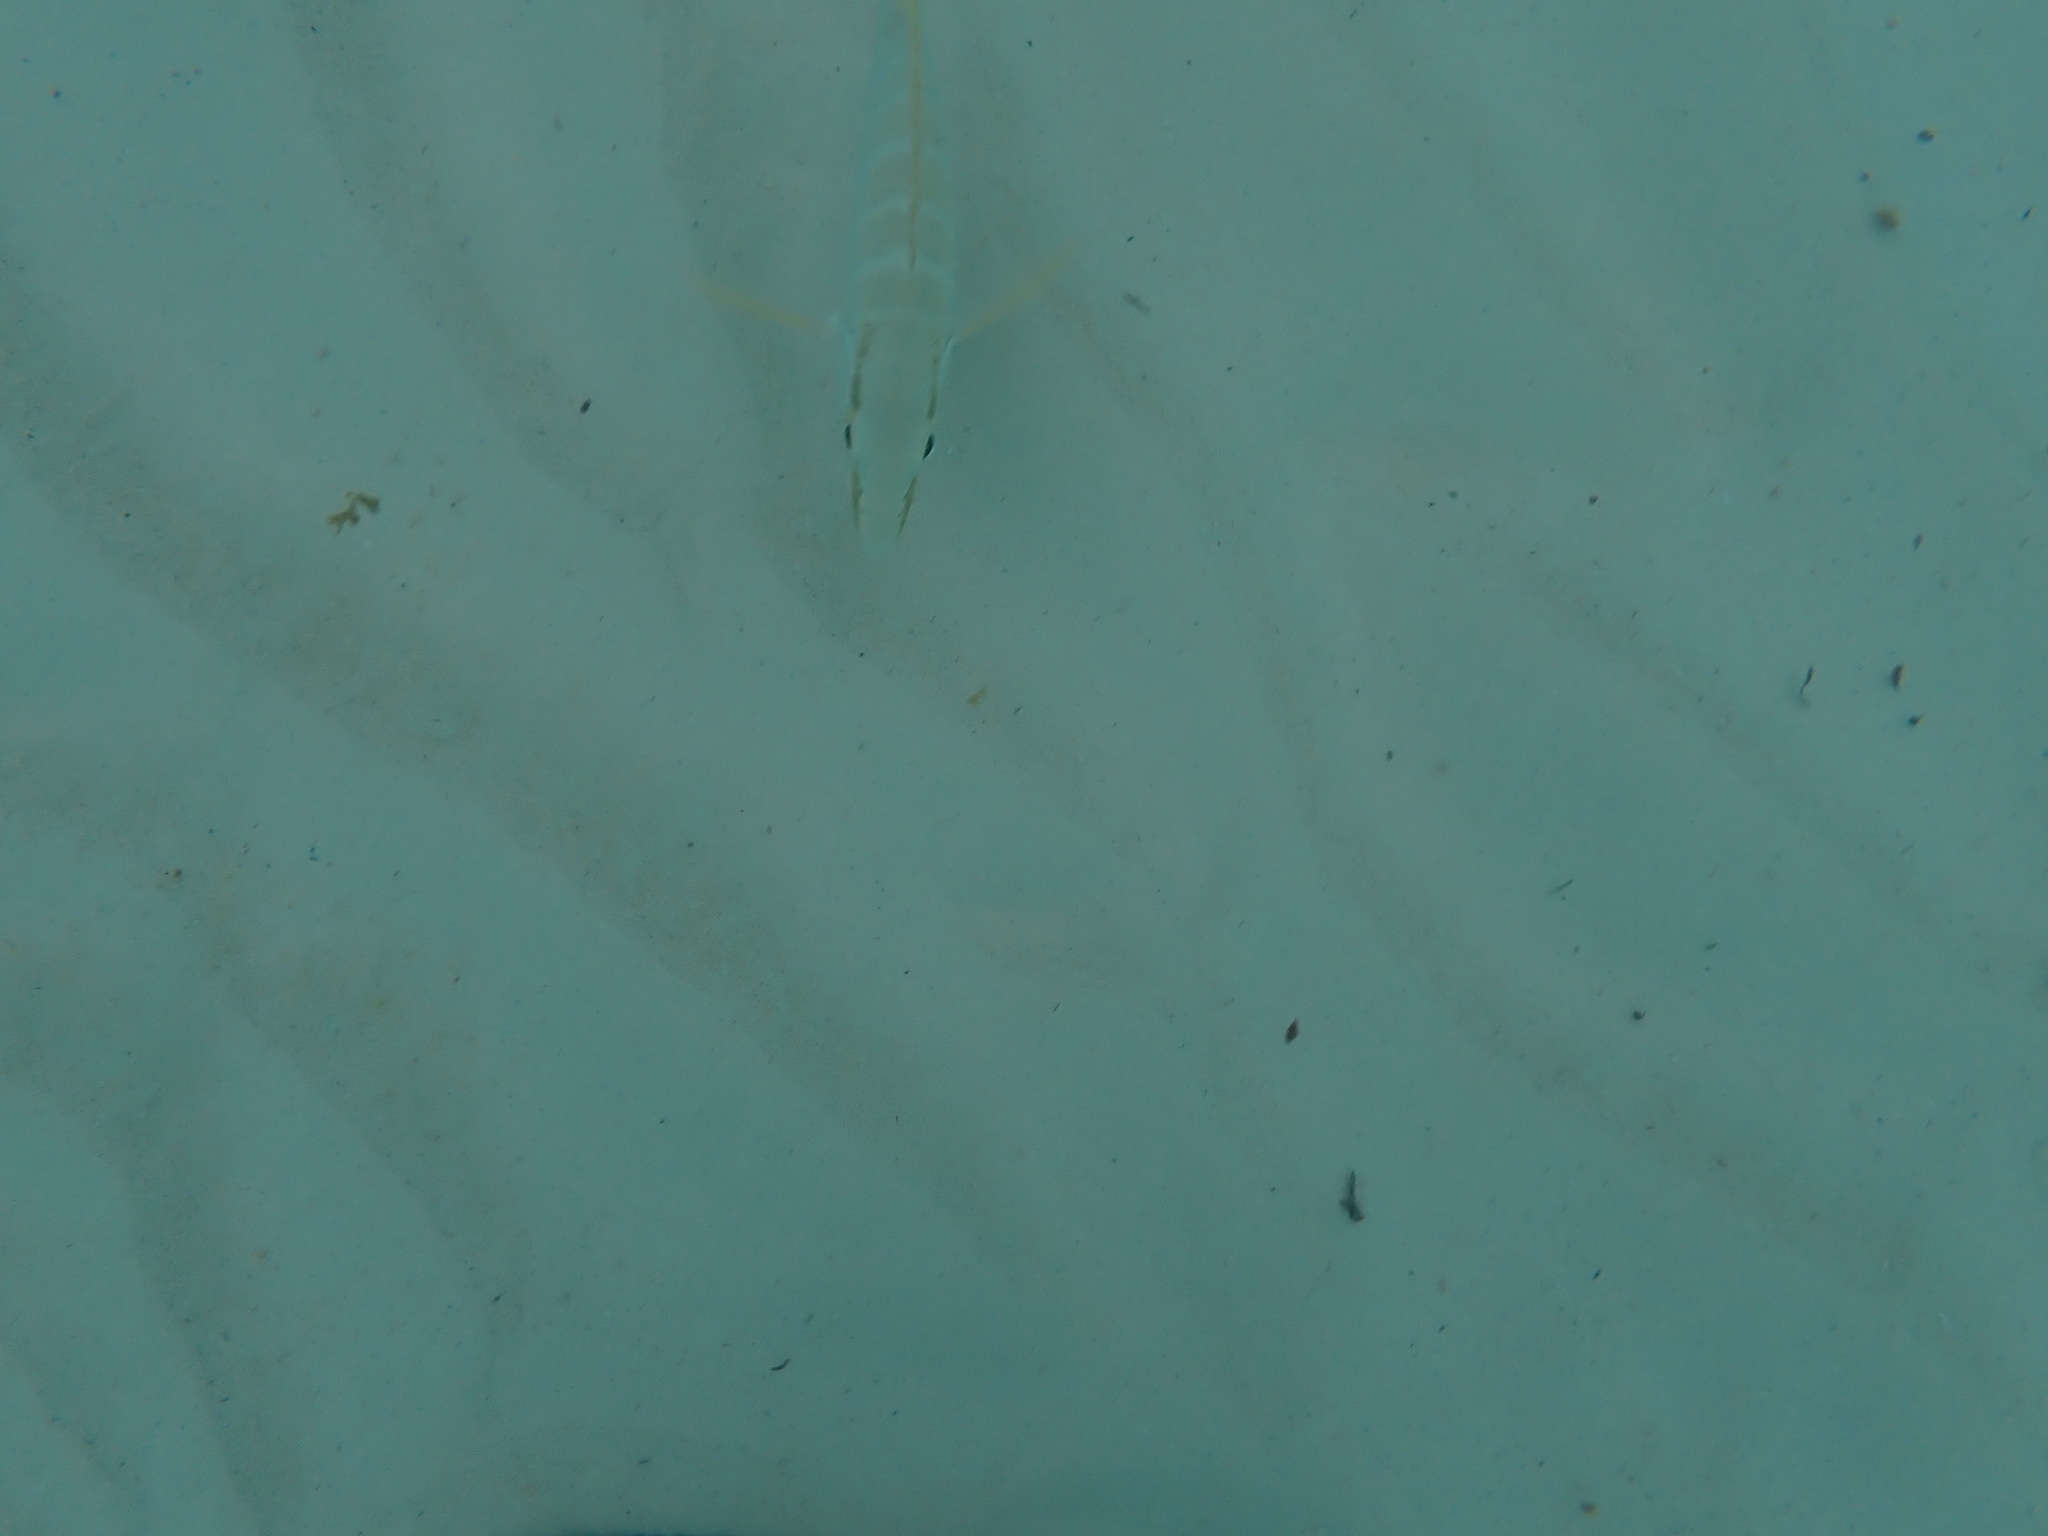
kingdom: Animalia
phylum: Chordata
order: Perciformes
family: Lutjanidae
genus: Lutjanus
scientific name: Lutjanus apodus
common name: Schoolmaster
